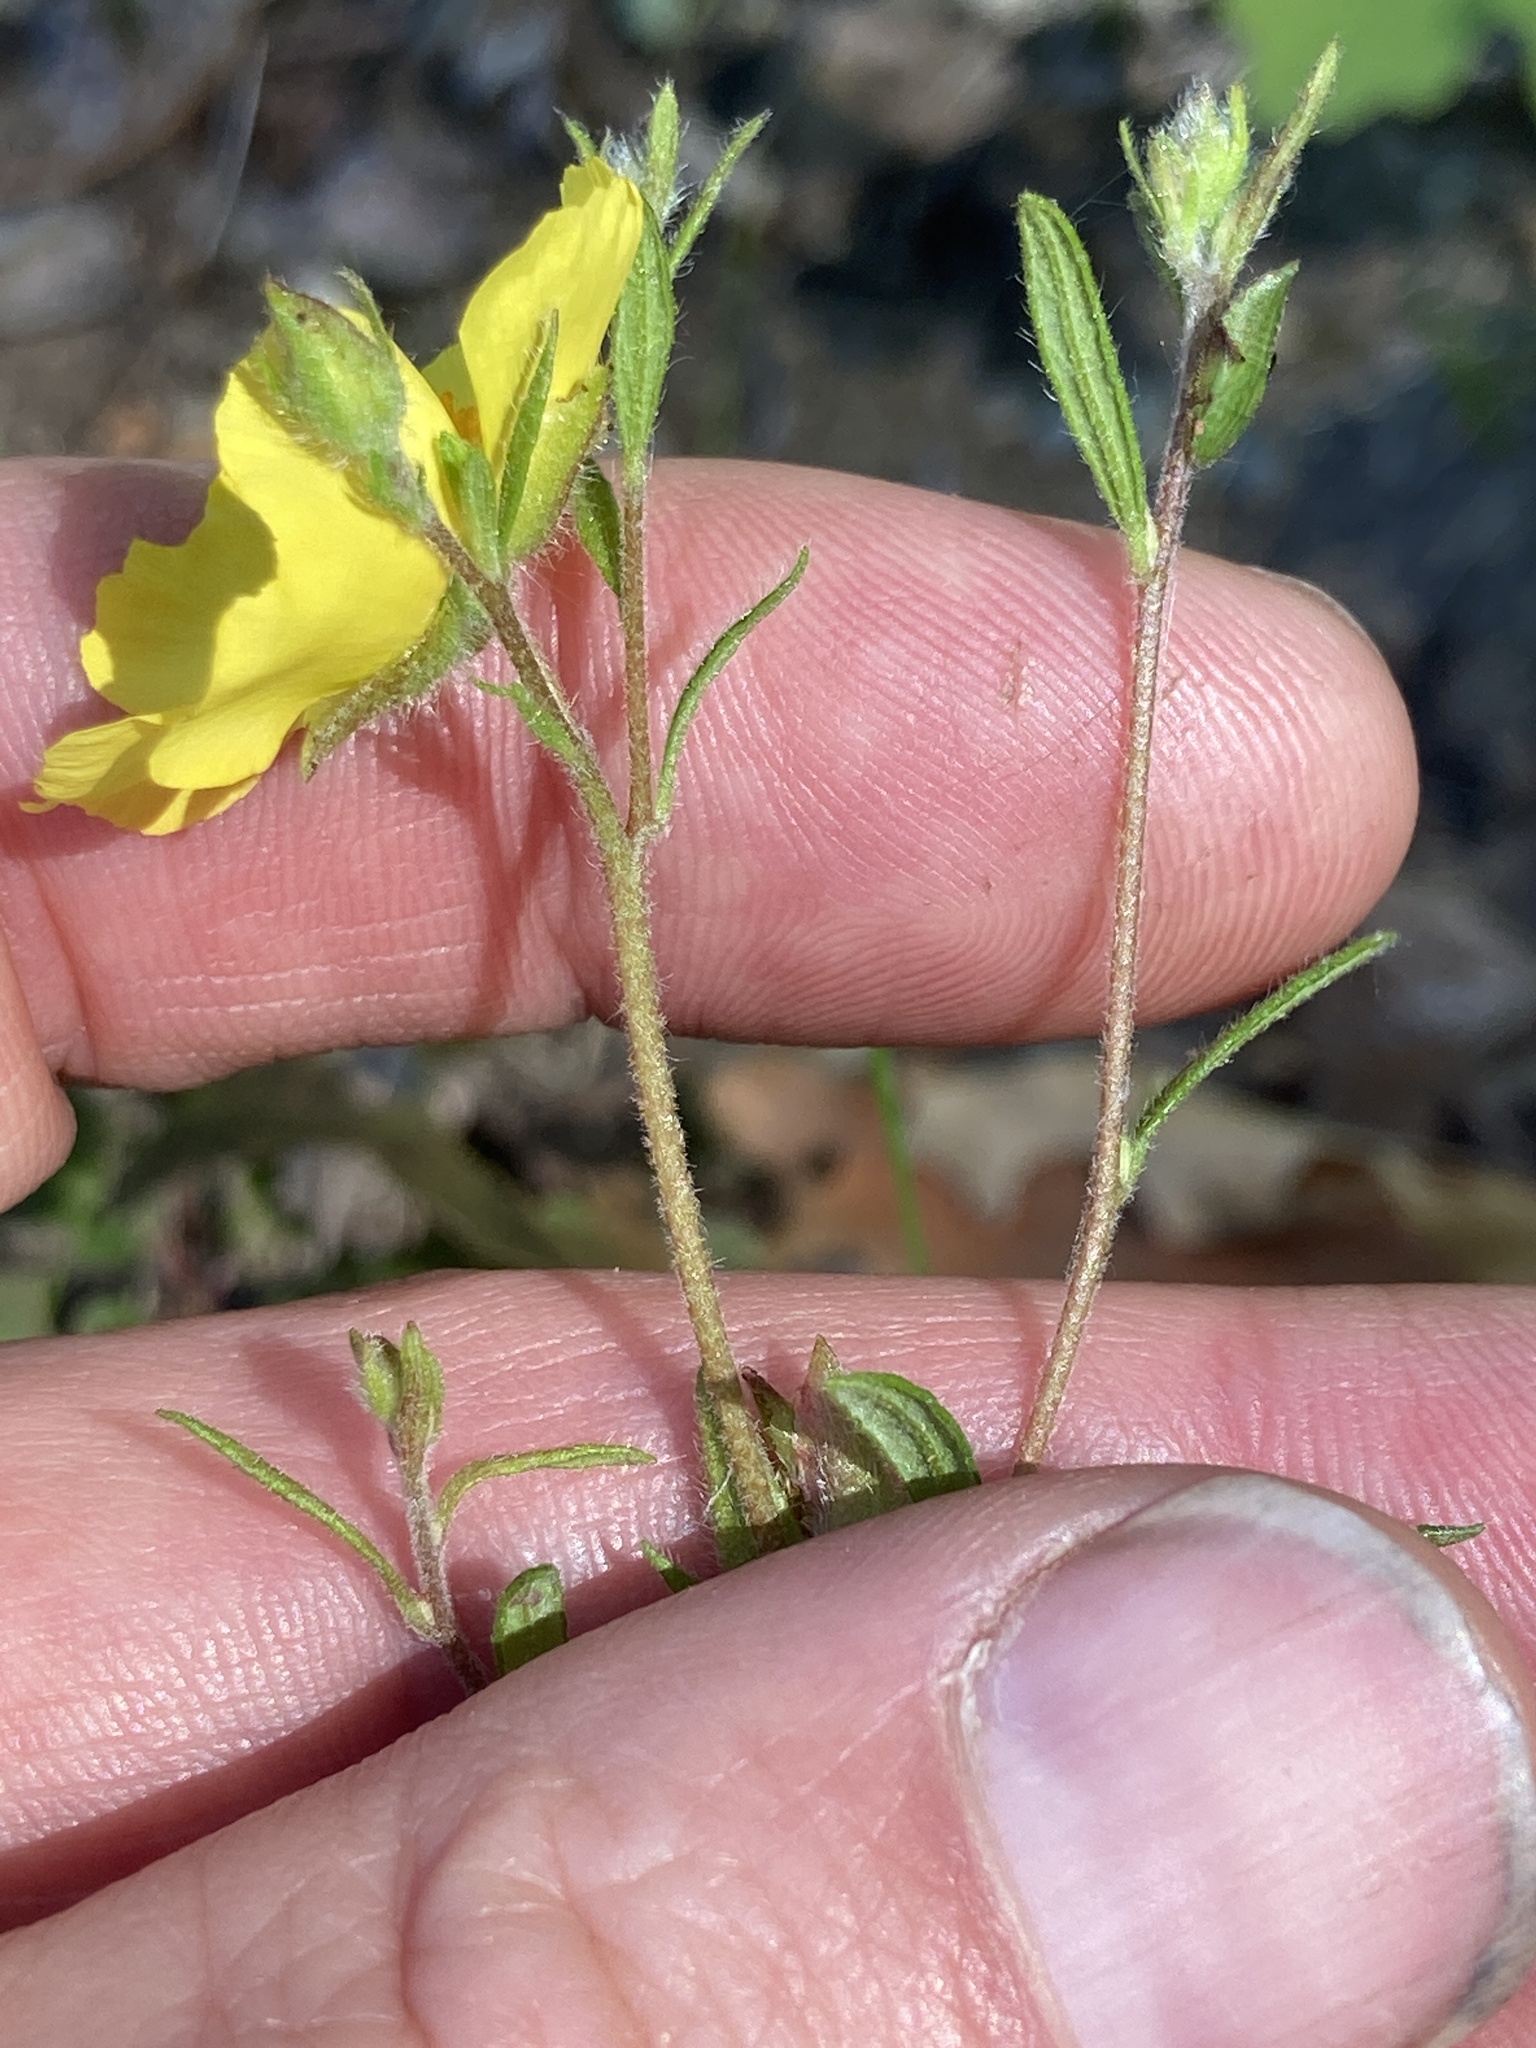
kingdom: Plantae
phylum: Tracheophyta
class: Magnoliopsida
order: Malvales
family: Cistaceae
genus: Crocanthemum
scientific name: Crocanthemum canadense
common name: Canada frostweed
